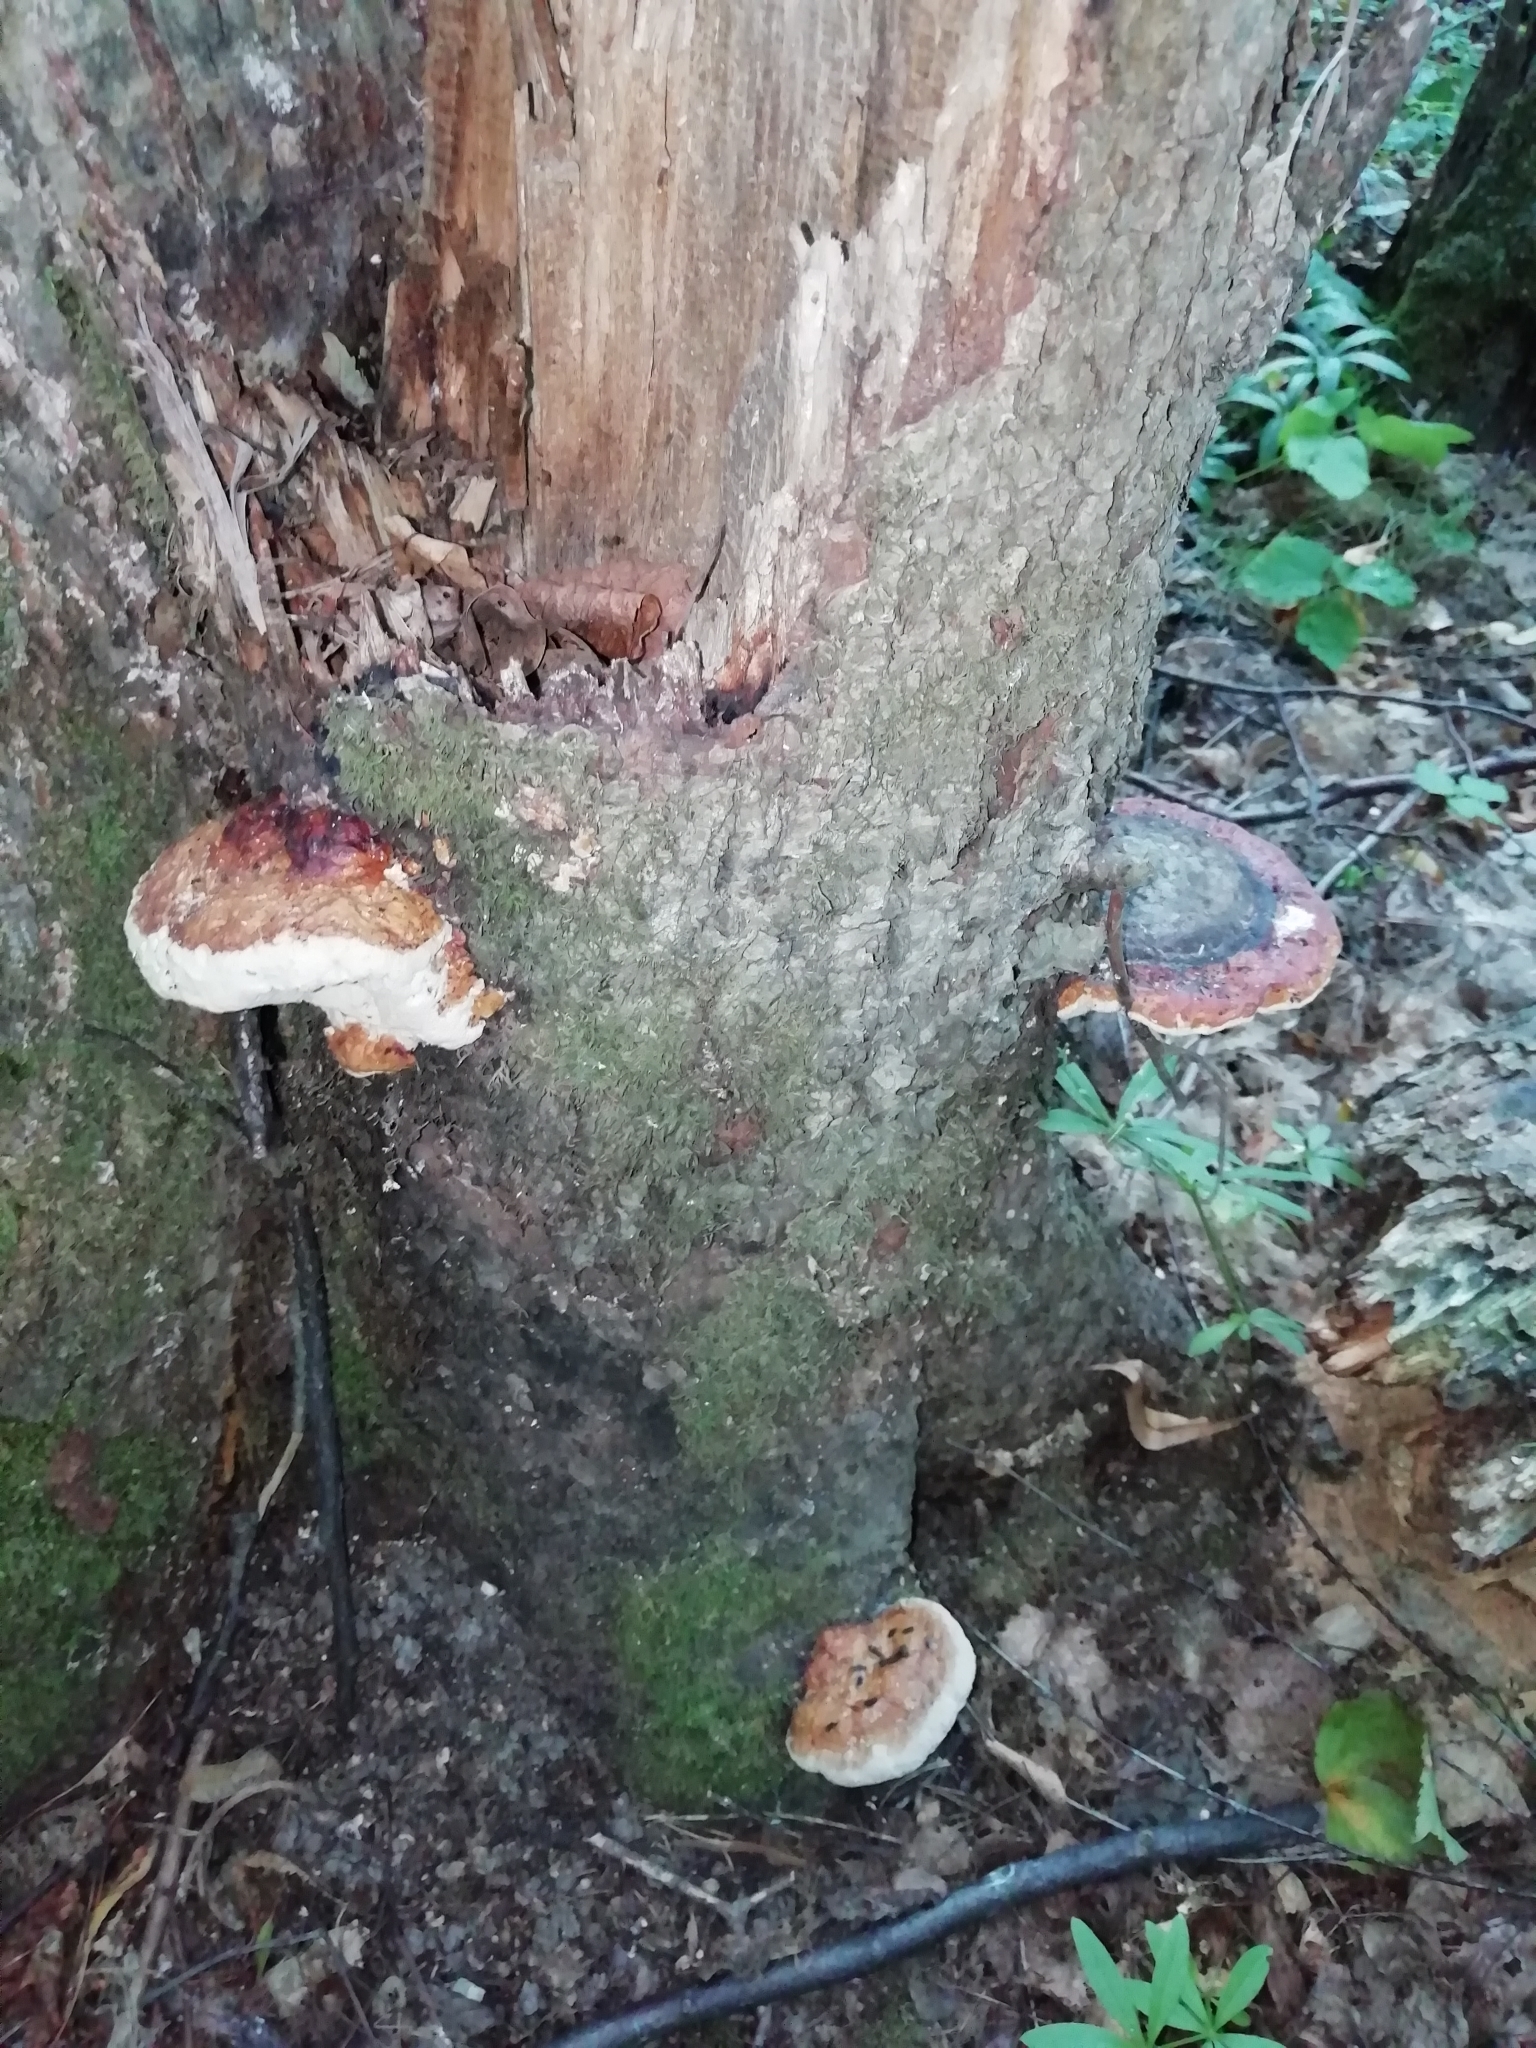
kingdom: Fungi
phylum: Basidiomycota
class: Agaricomycetes
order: Polyporales
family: Fomitopsidaceae
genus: Fomitopsis
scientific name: Fomitopsis pinicola
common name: Red-belted bracket
